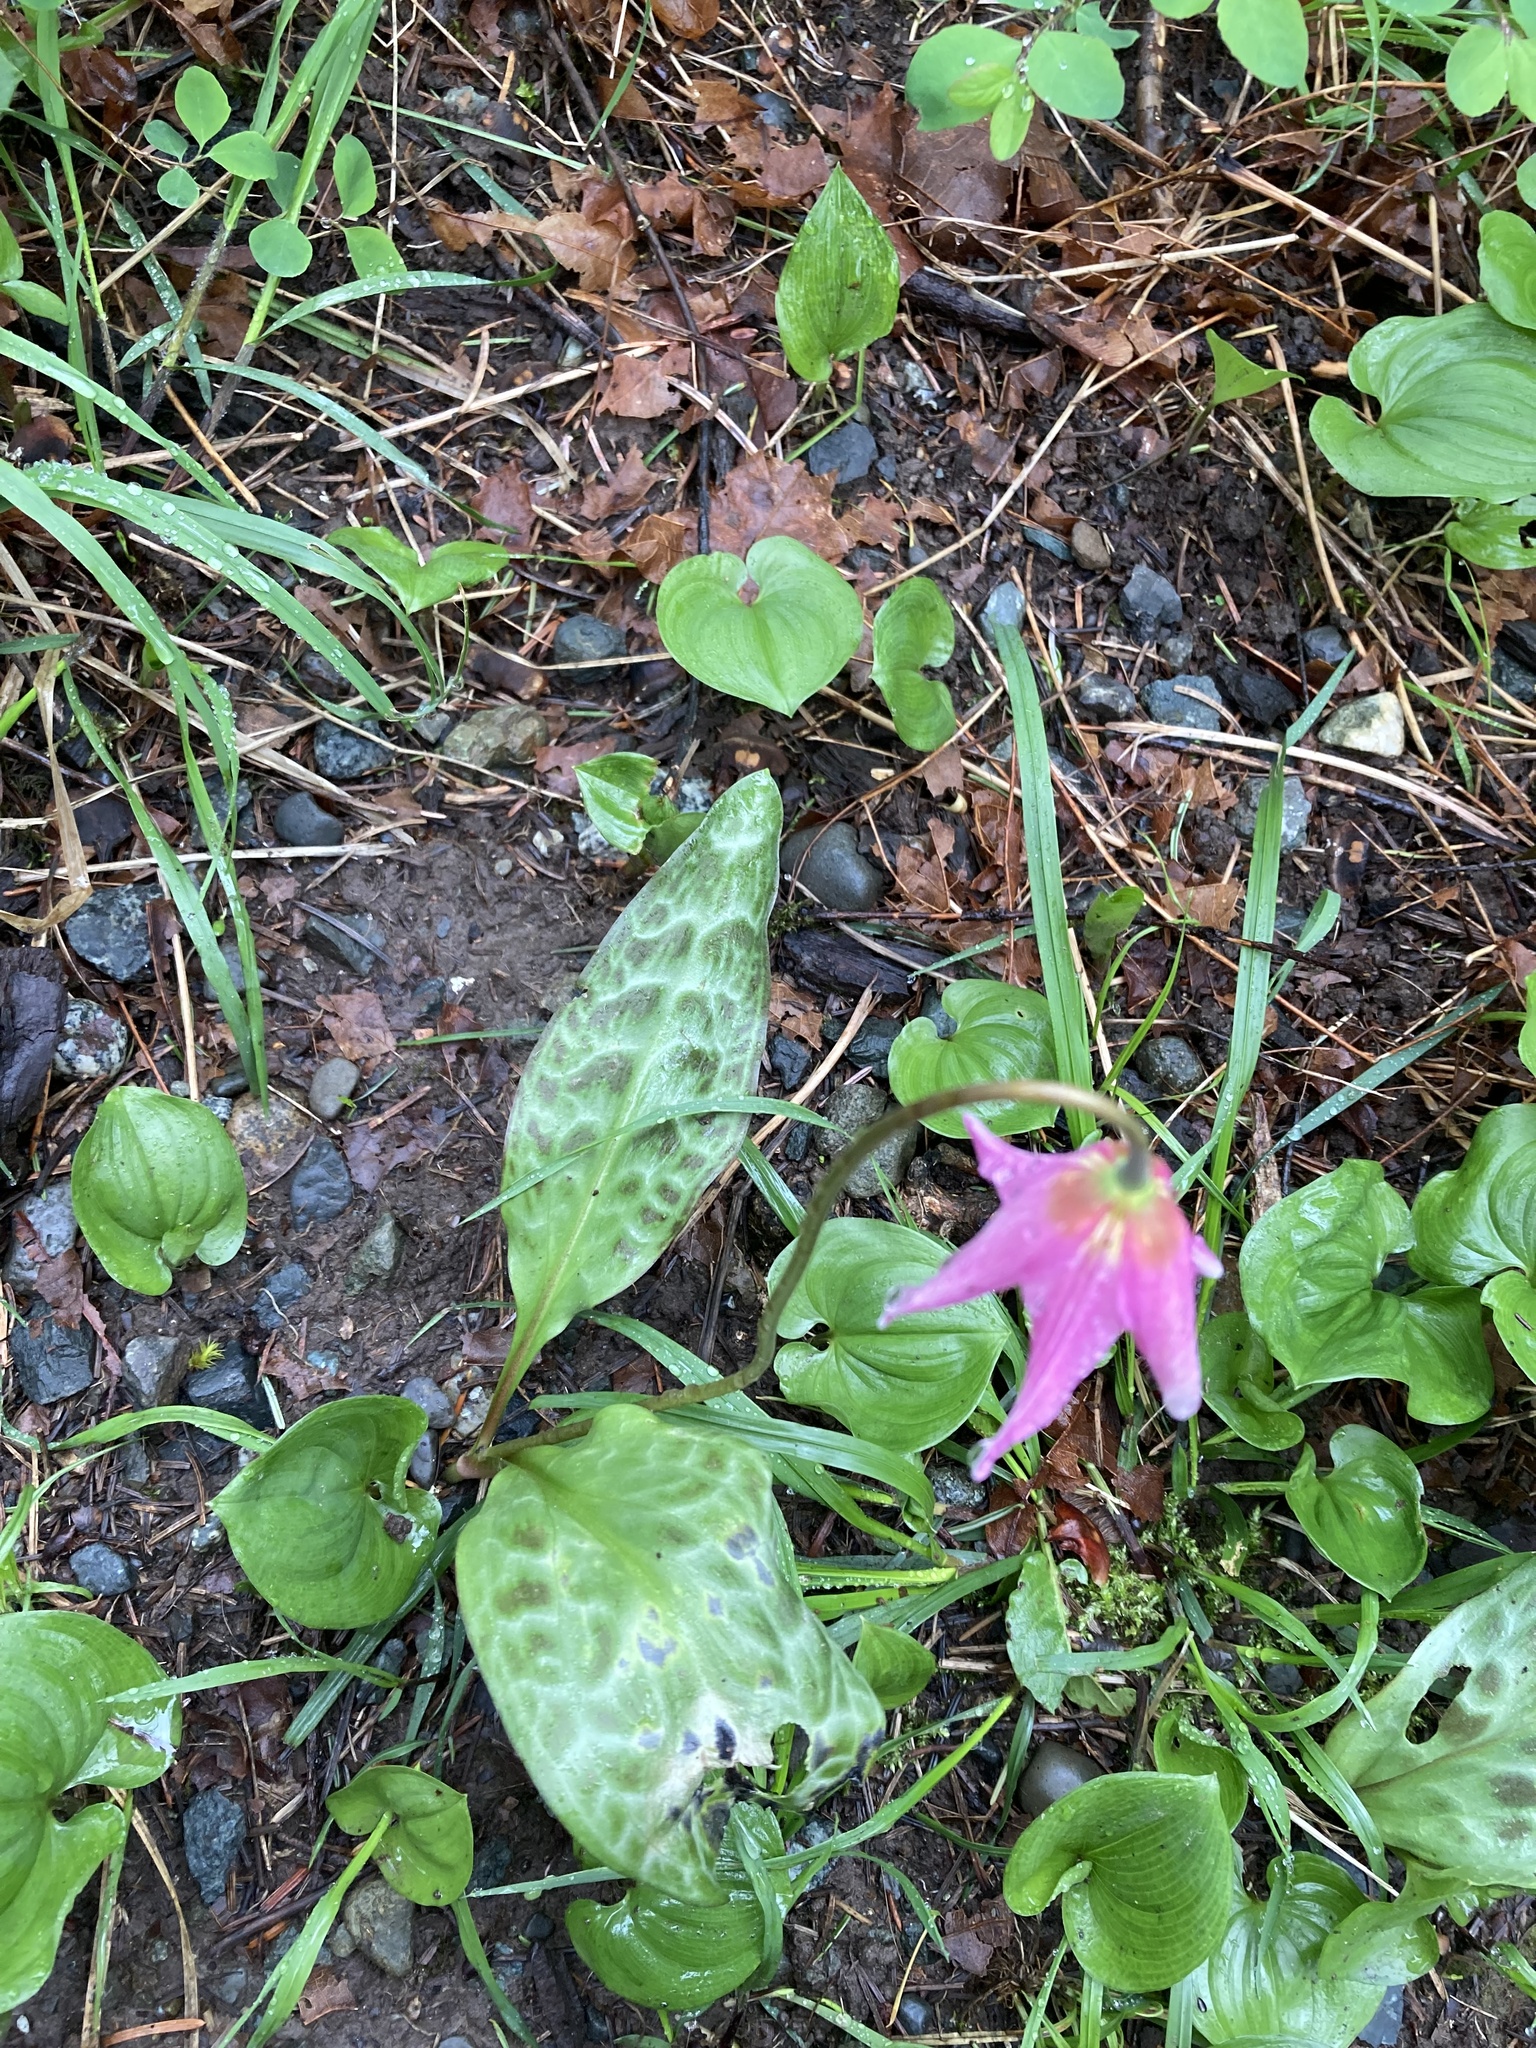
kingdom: Plantae
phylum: Tracheophyta
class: Liliopsida
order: Liliales
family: Liliaceae
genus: Erythronium
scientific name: Erythronium revolutum
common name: Pink fawn-lily
